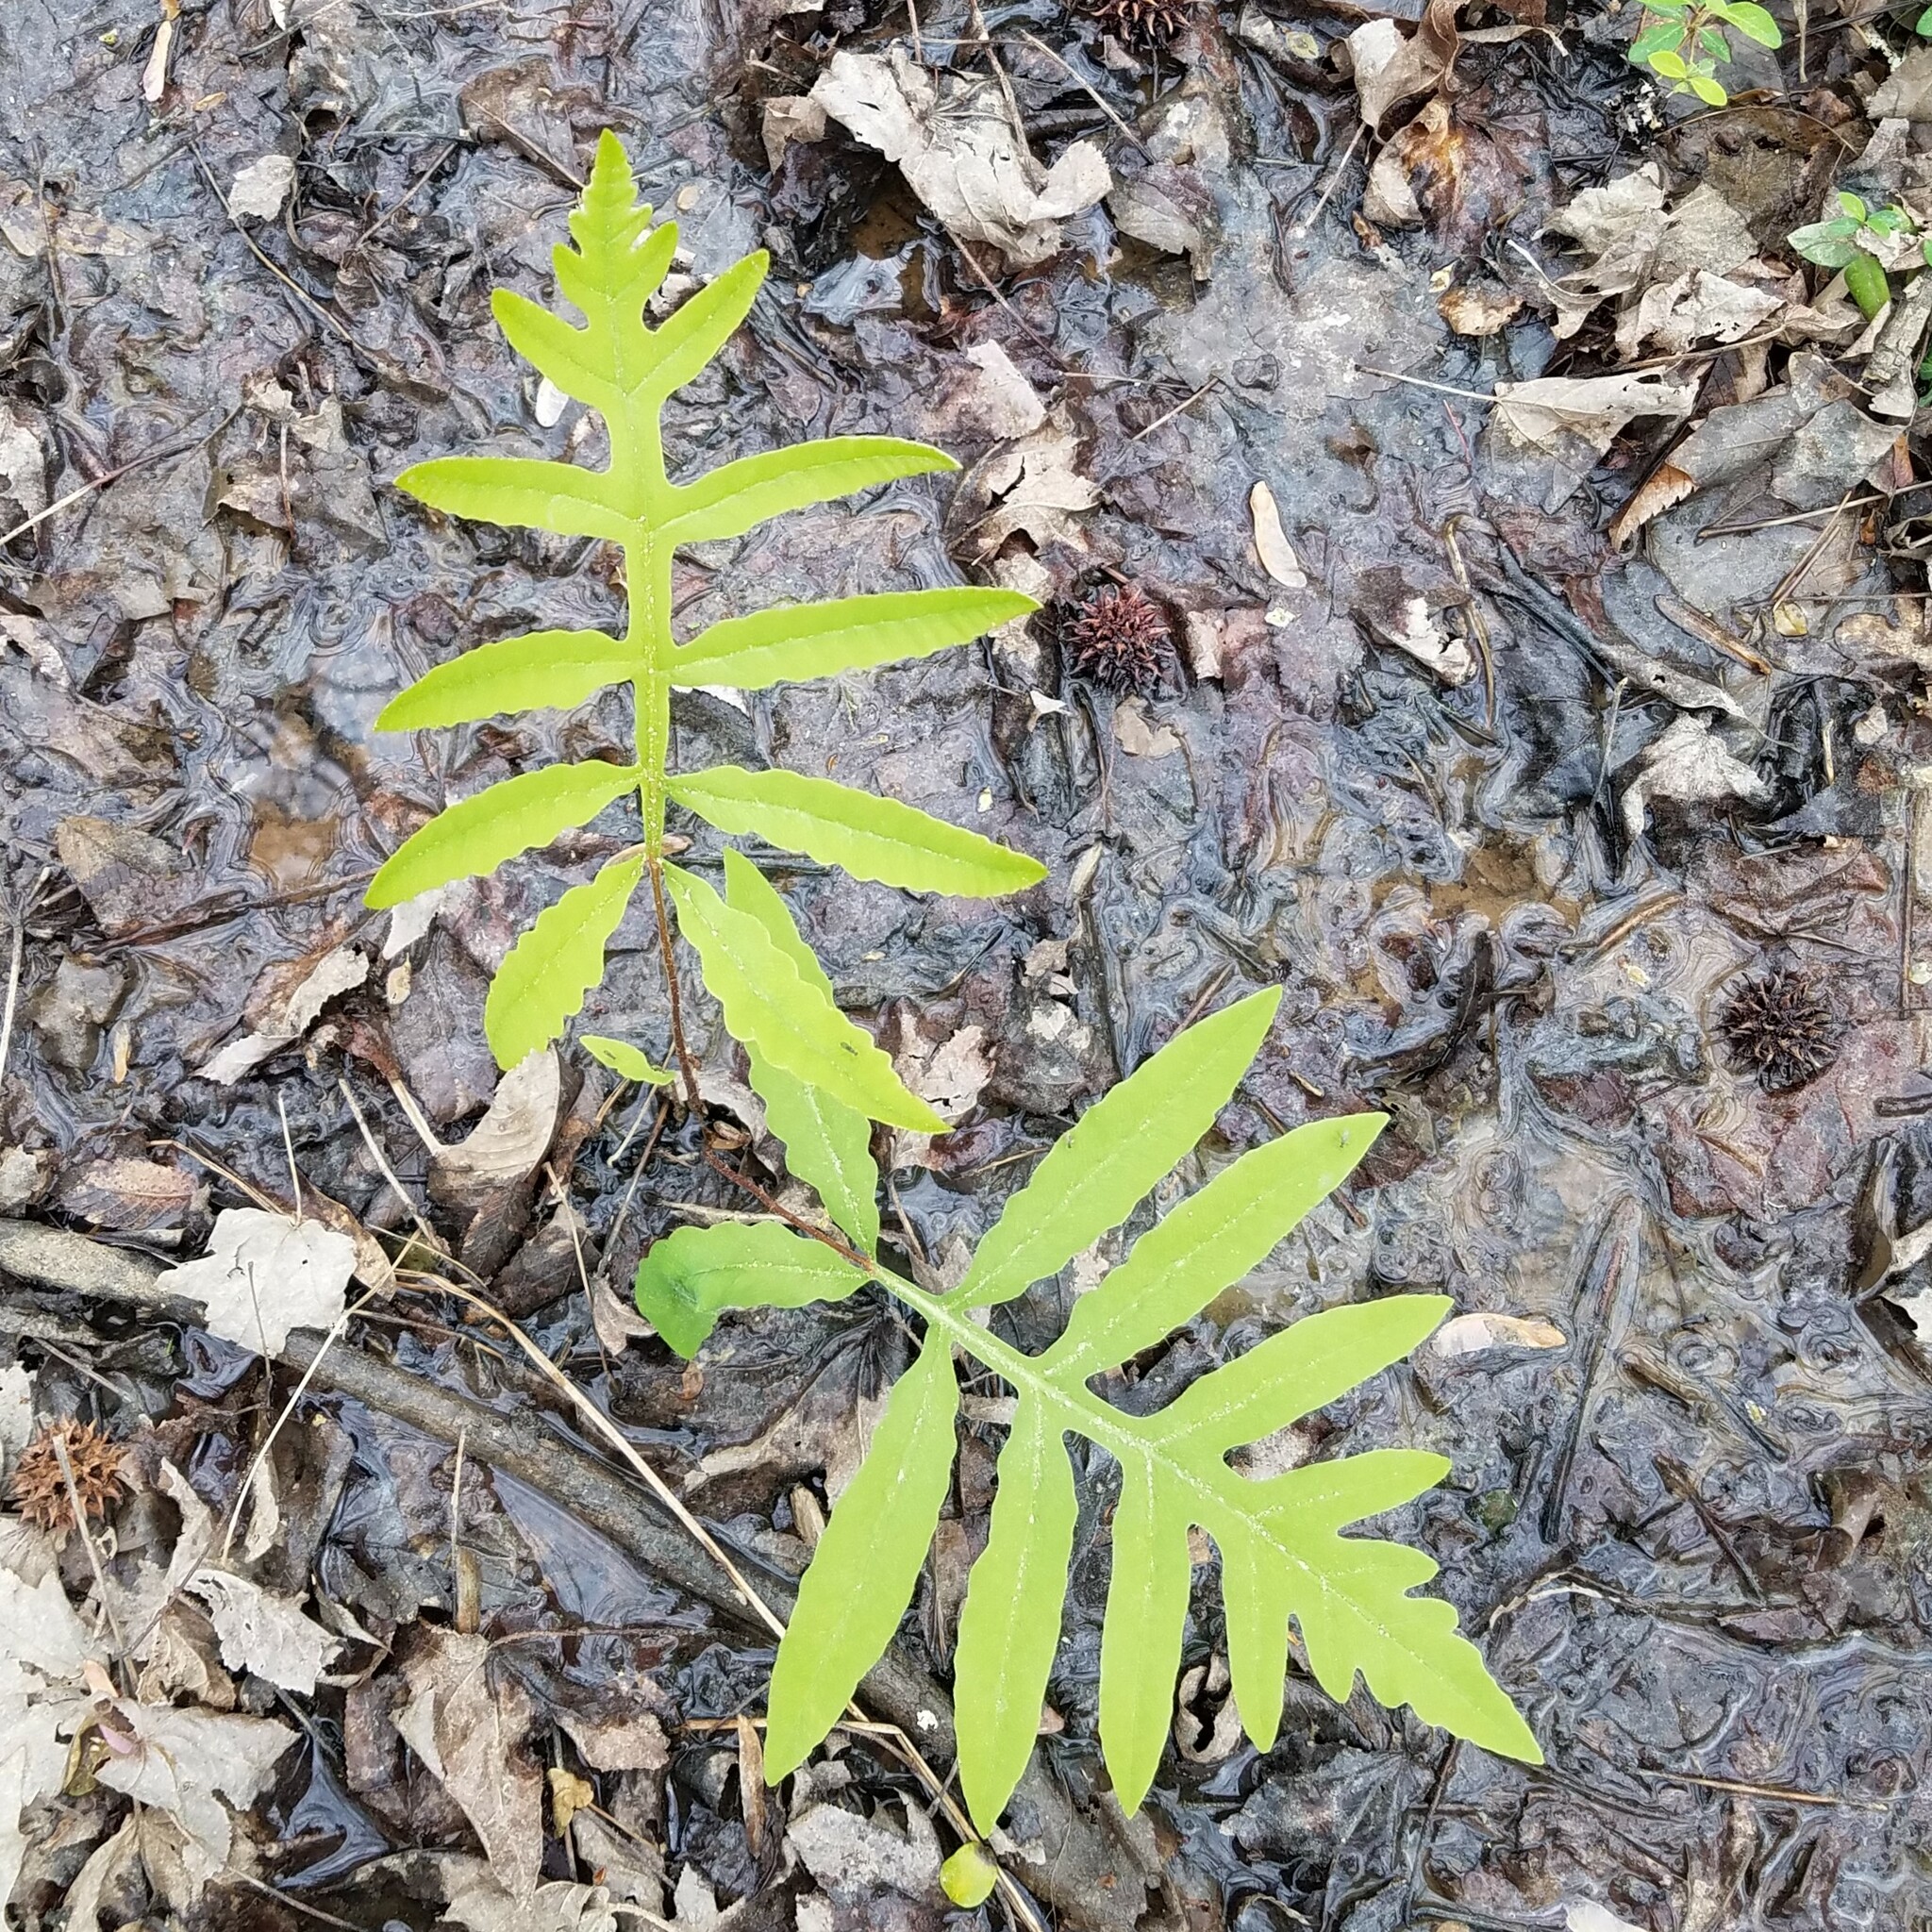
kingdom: Plantae
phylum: Tracheophyta
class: Polypodiopsida
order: Polypodiales
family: Onocleaceae
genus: Onoclea
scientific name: Onoclea sensibilis
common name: Sensitive fern
